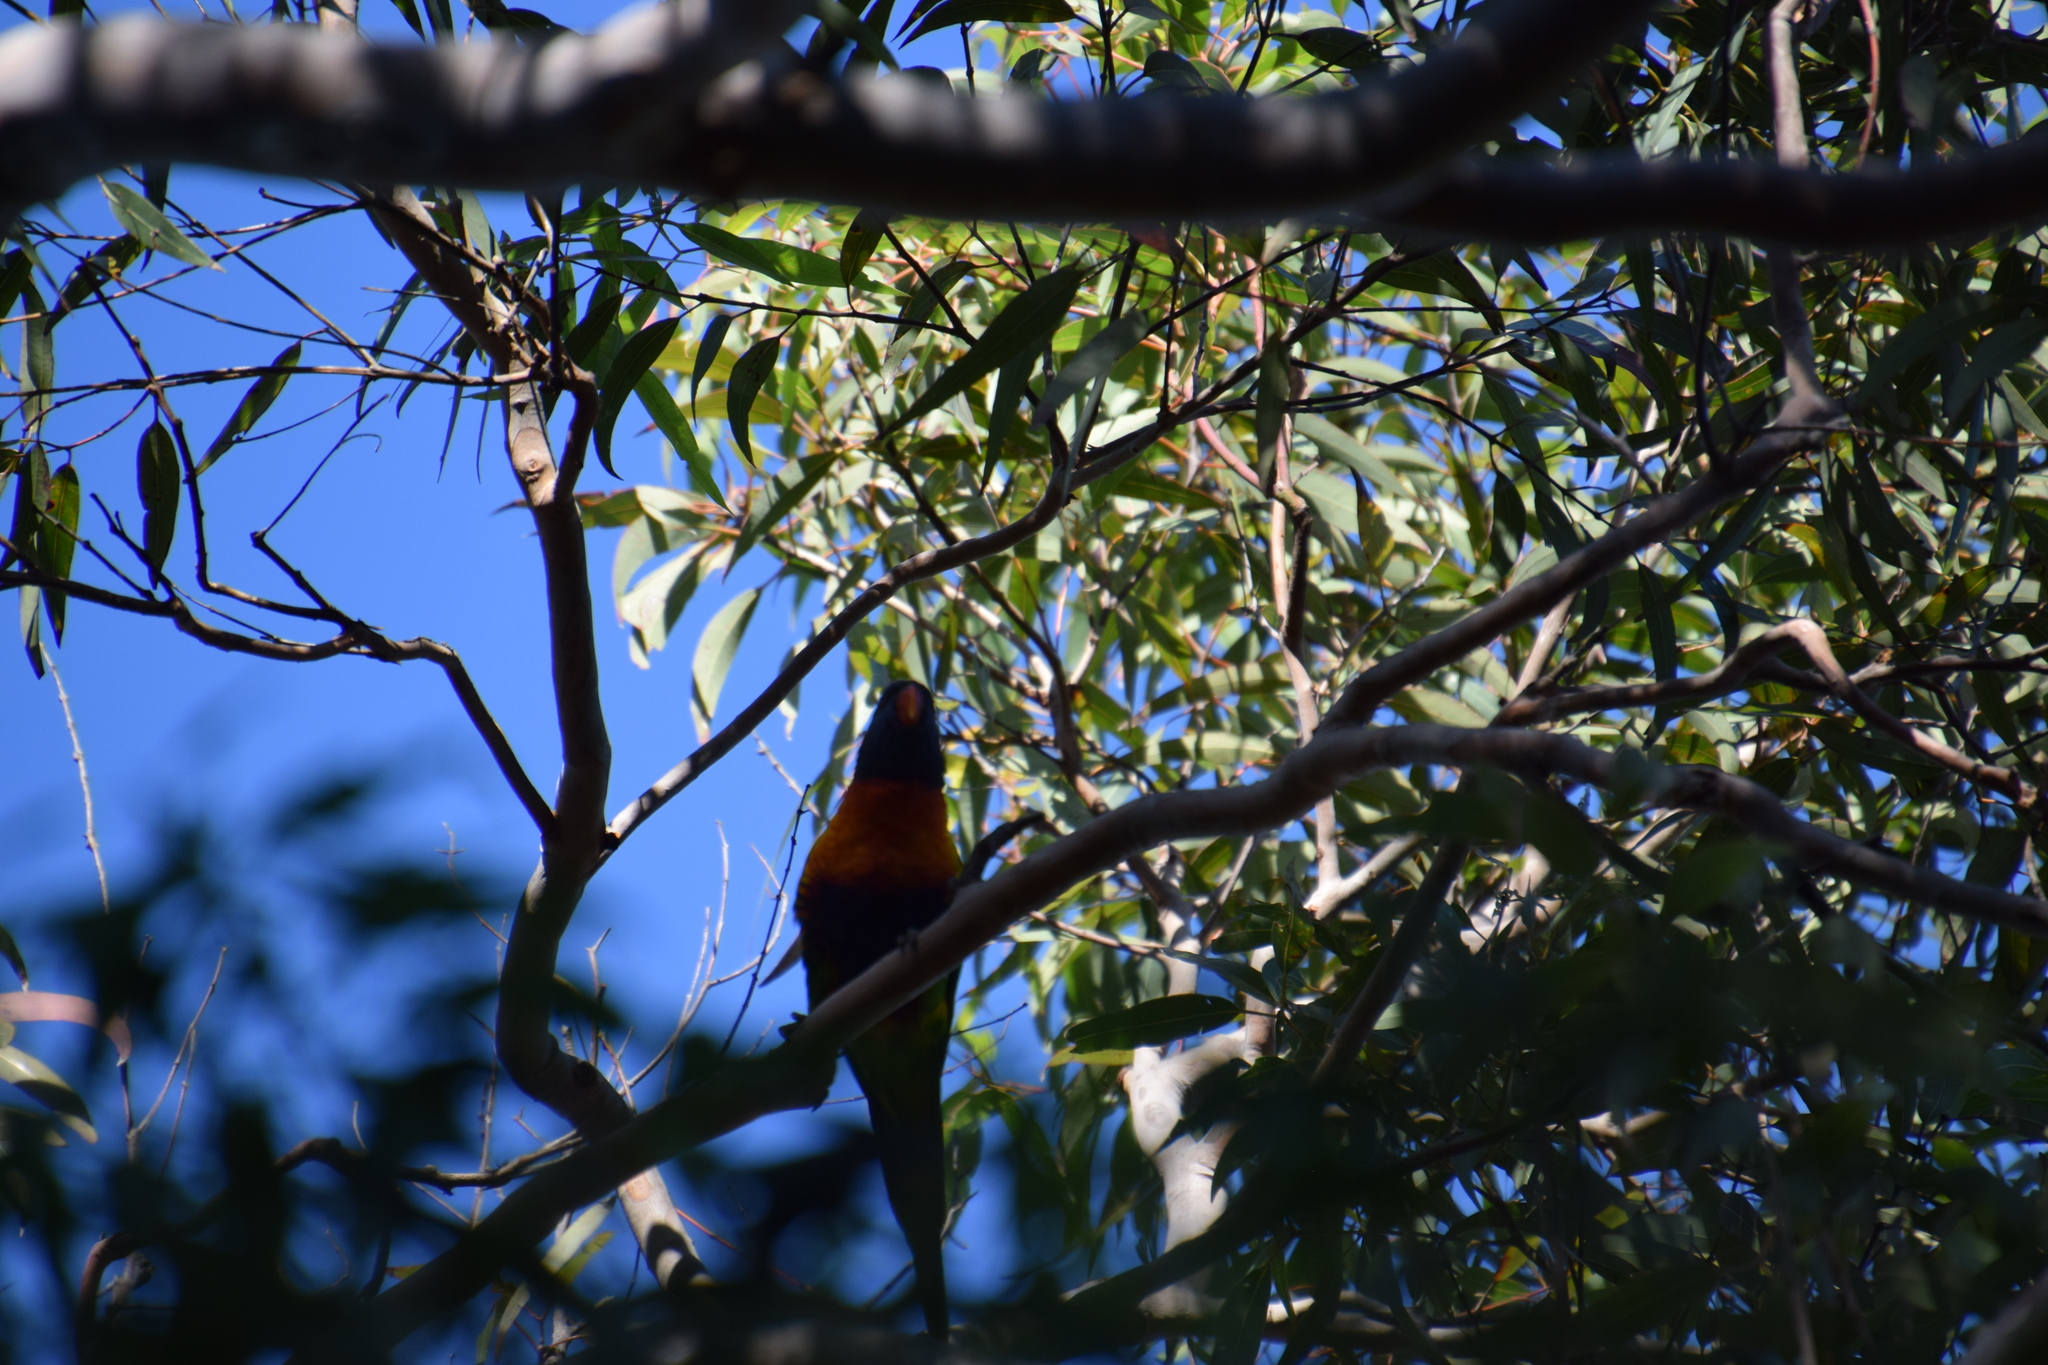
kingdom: Animalia
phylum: Chordata
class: Aves
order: Psittaciformes
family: Psittacidae
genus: Trichoglossus
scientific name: Trichoglossus haematodus
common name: Coconut lorikeet
